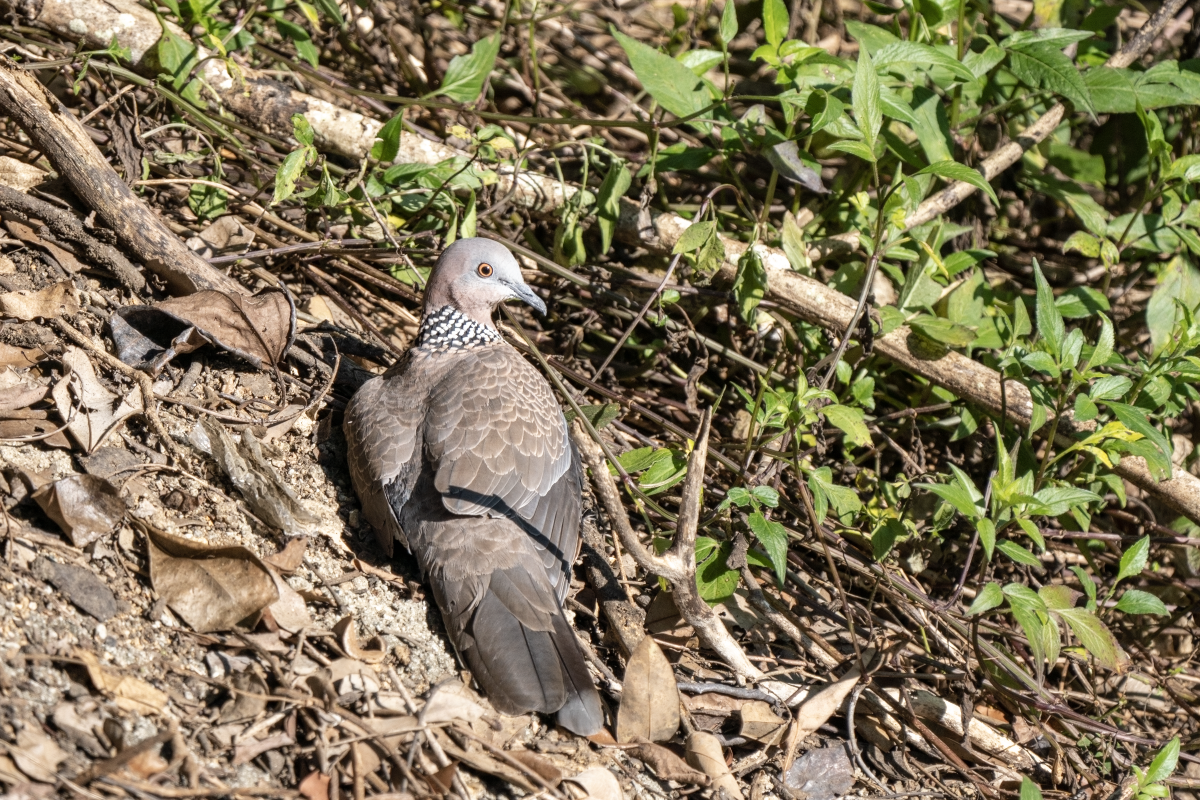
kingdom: Animalia
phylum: Chordata
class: Aves
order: Columbiformes
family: Columbidae
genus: Spilopelia
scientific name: Spilopelia chinensis
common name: Spotted dove
